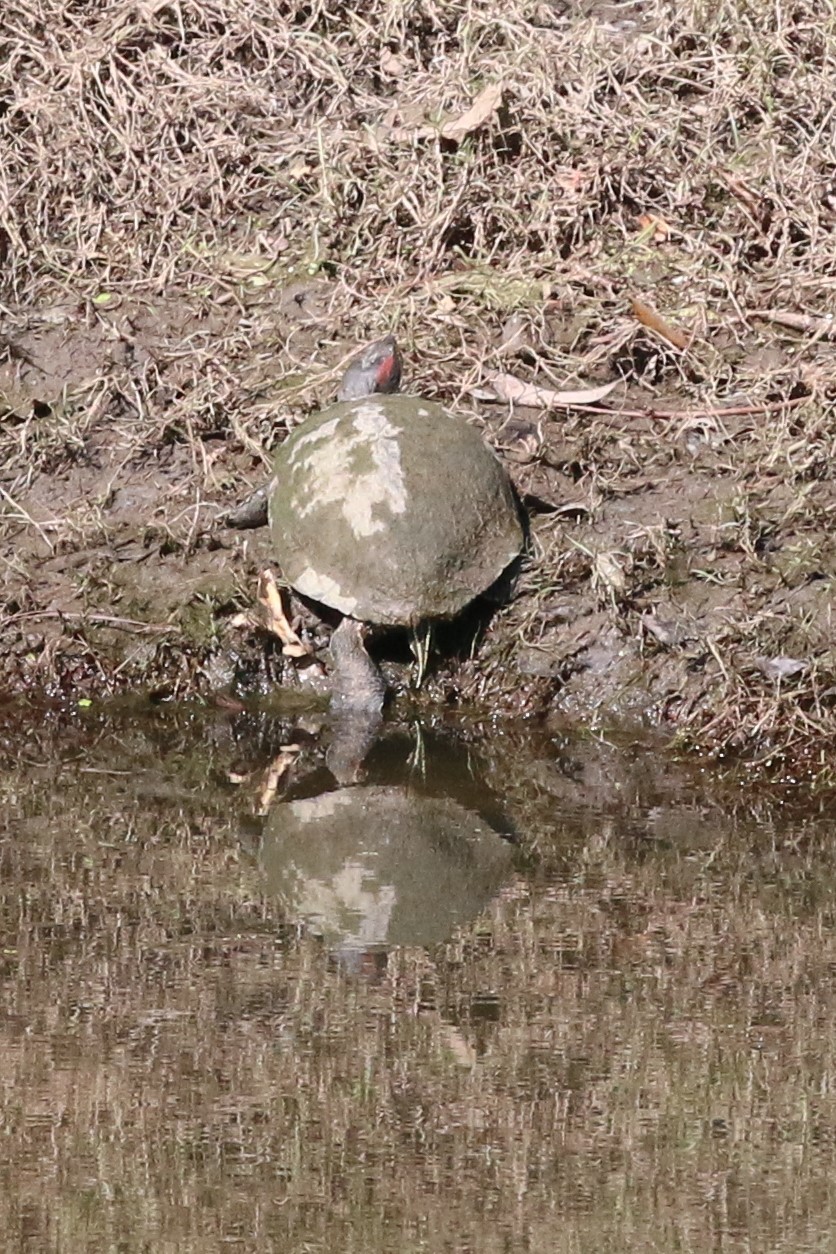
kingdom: Animalia
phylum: Chordata
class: Testudines
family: Emydidae
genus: Trachemys
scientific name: Trachemys scripta
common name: Slider
